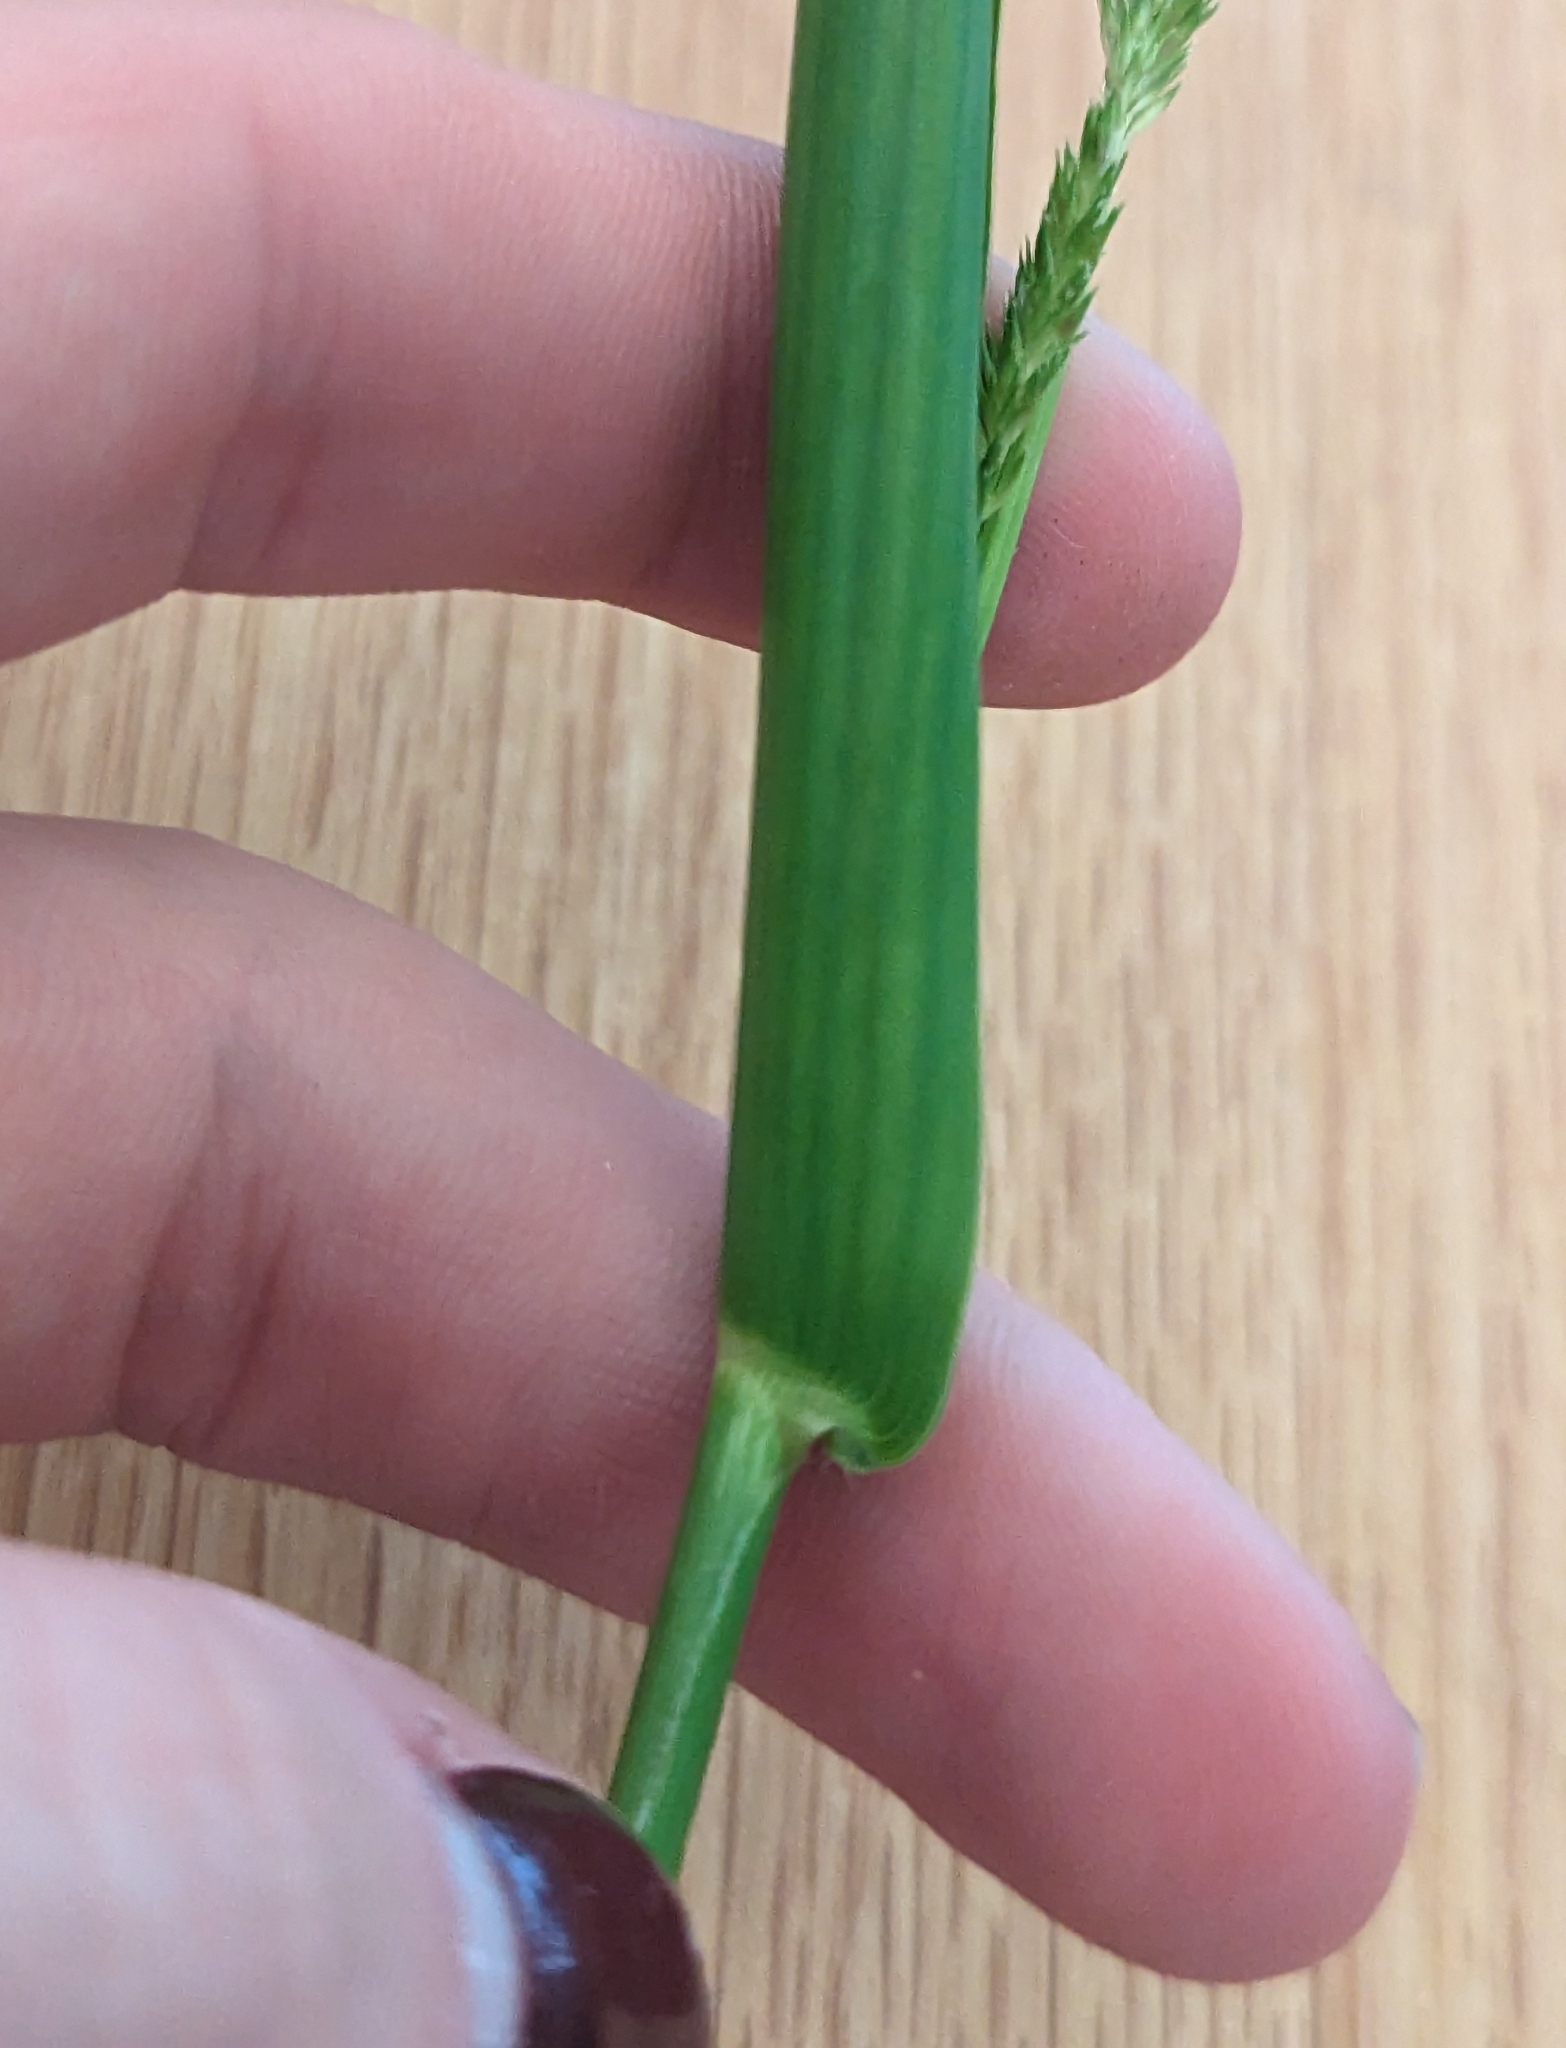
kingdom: Plantae
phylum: Tracheophyta
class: Liliopsida
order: Poales
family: Poaceae
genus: Hymenachne
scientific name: Hymenachne amplexicaulis
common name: Olive hymenachne
